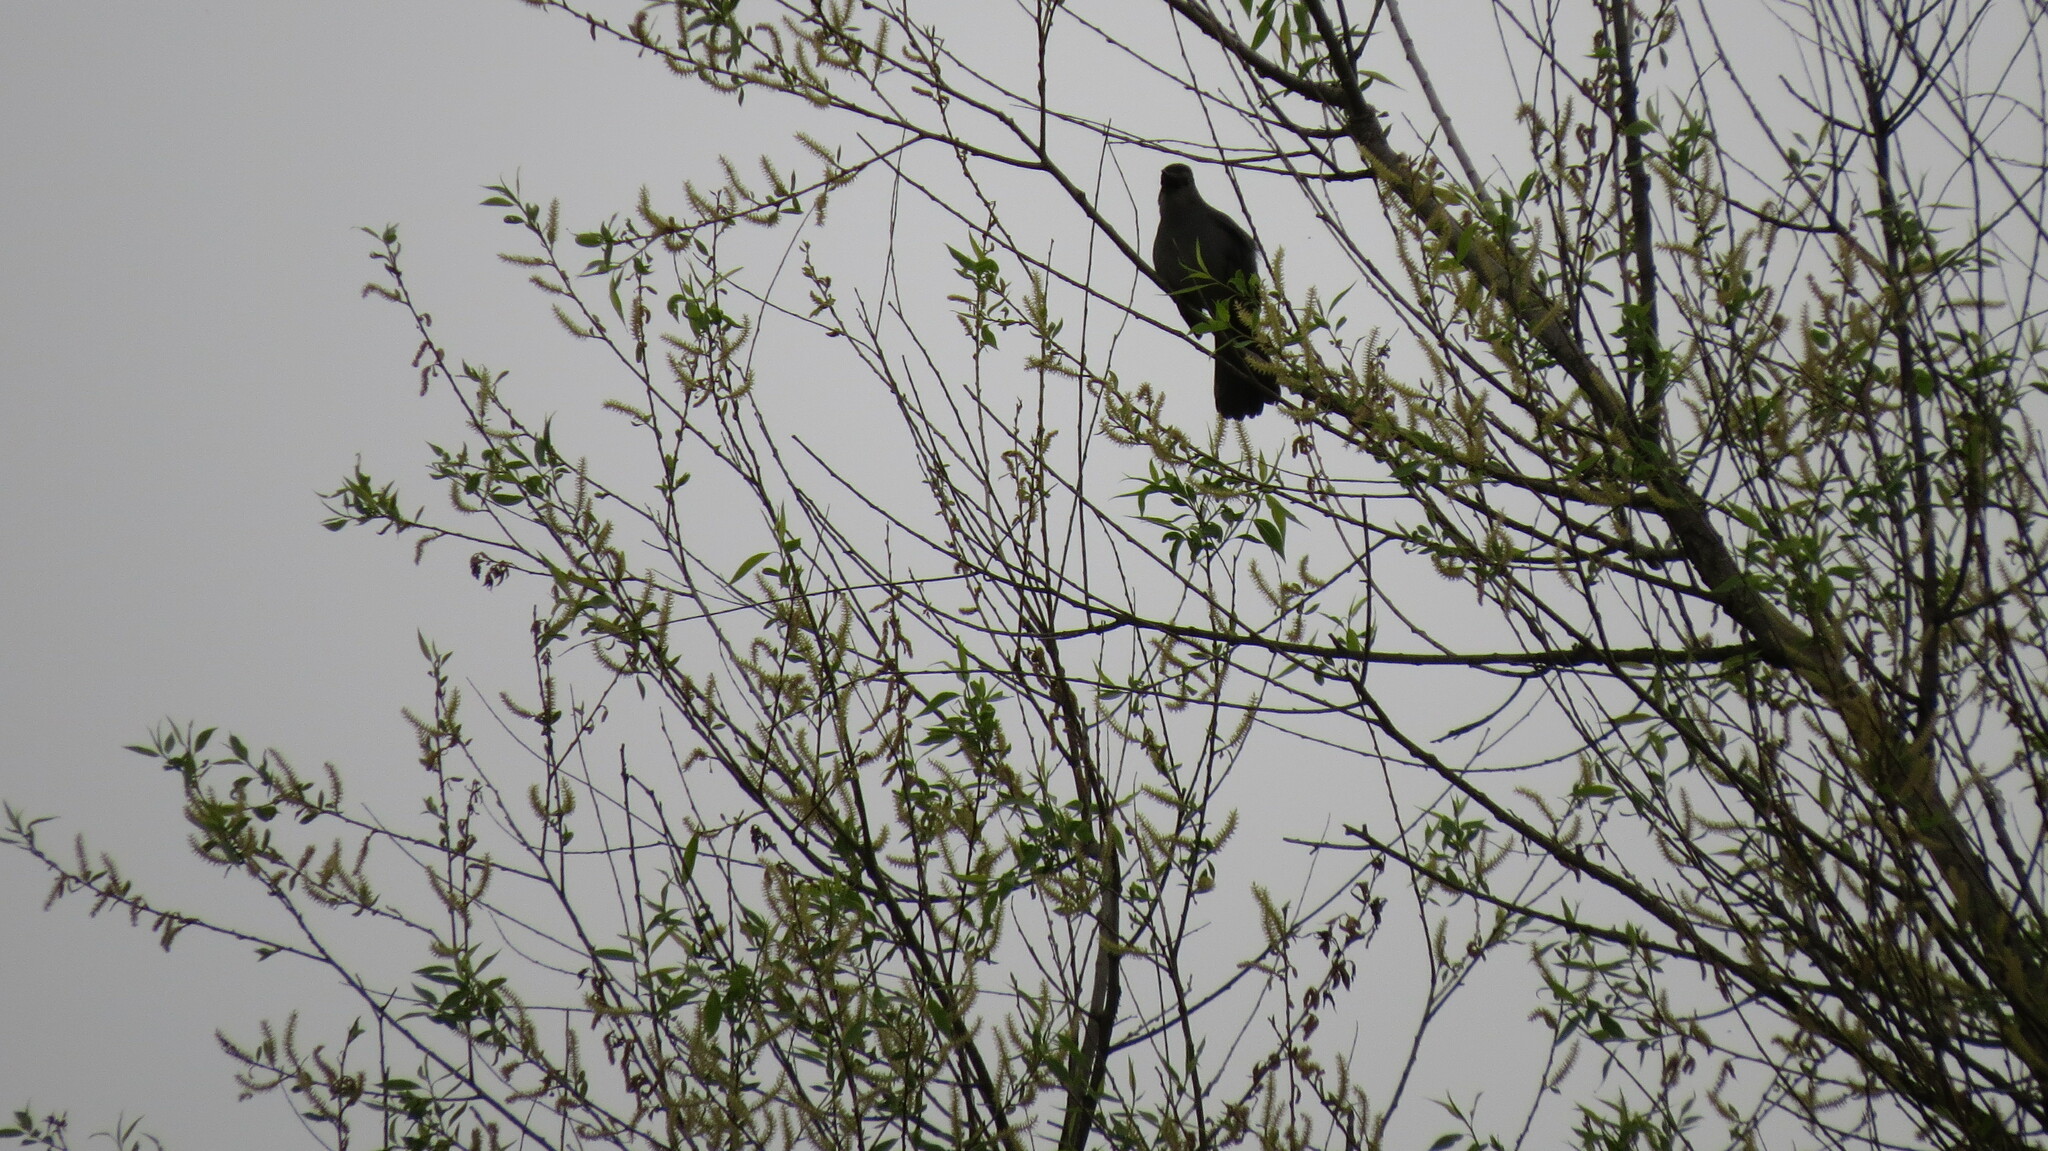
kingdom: Animalia
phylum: Chordata
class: Aves
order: Passeriformes
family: Mimidae
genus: Dumetella
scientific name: Dumetella carolinensis
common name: Gray catbird
